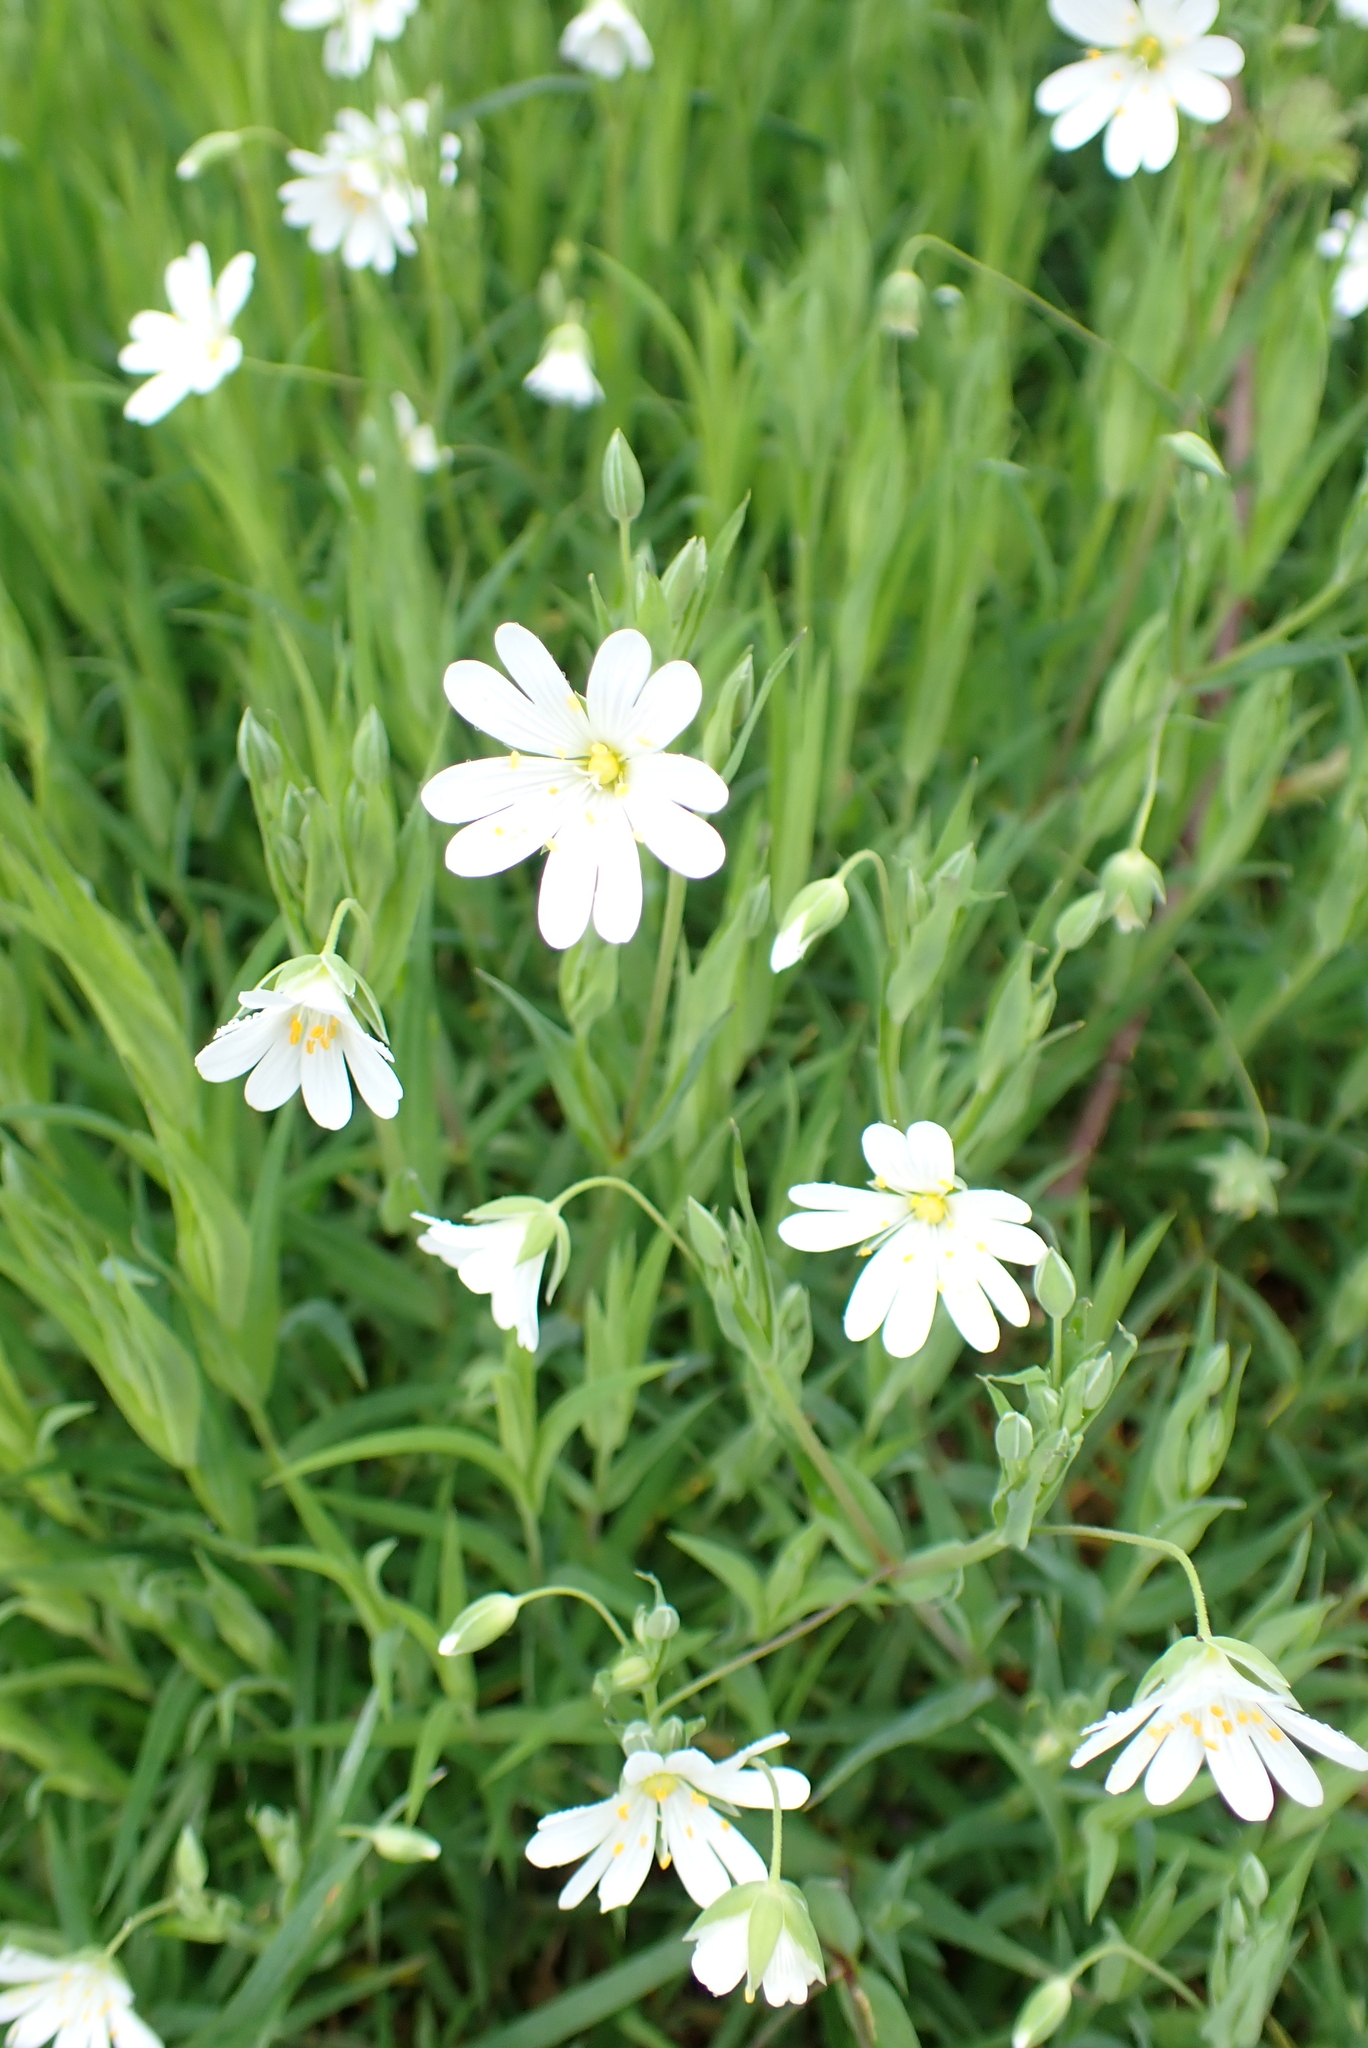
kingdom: Plantae
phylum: Tracheophyta
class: Magnoliopsida
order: Caryophyllales
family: Caryophyllaceae
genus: Rabelera
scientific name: Rabelera holostea
